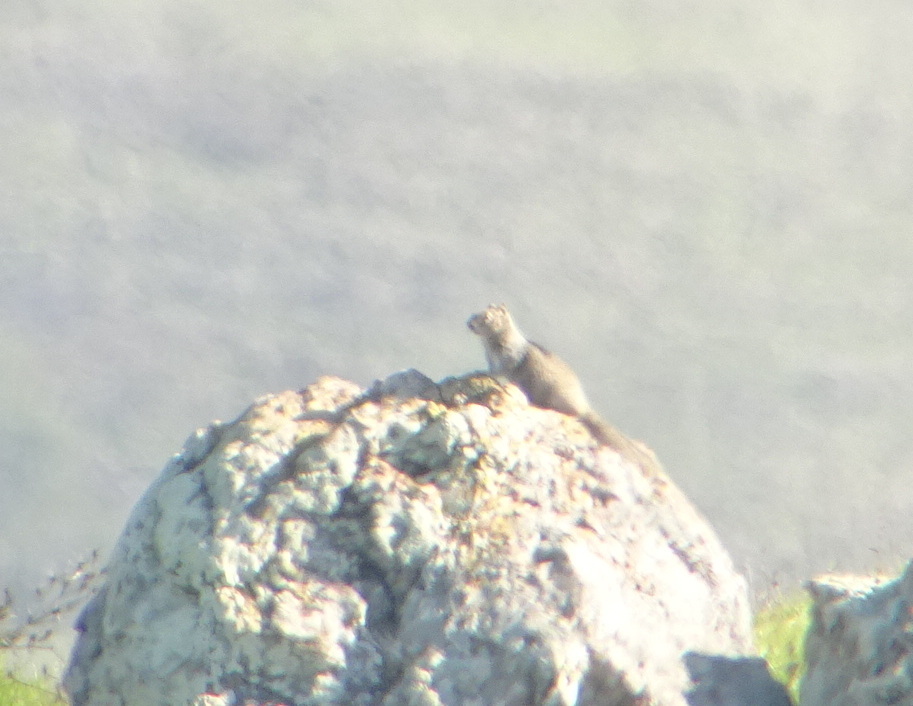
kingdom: Animalia
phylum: Chordata
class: Mammalia
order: Rodentia
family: Sciuridae
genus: Otospermophilus
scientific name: Otospermophilus beecheyi
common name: California ground squirrel
